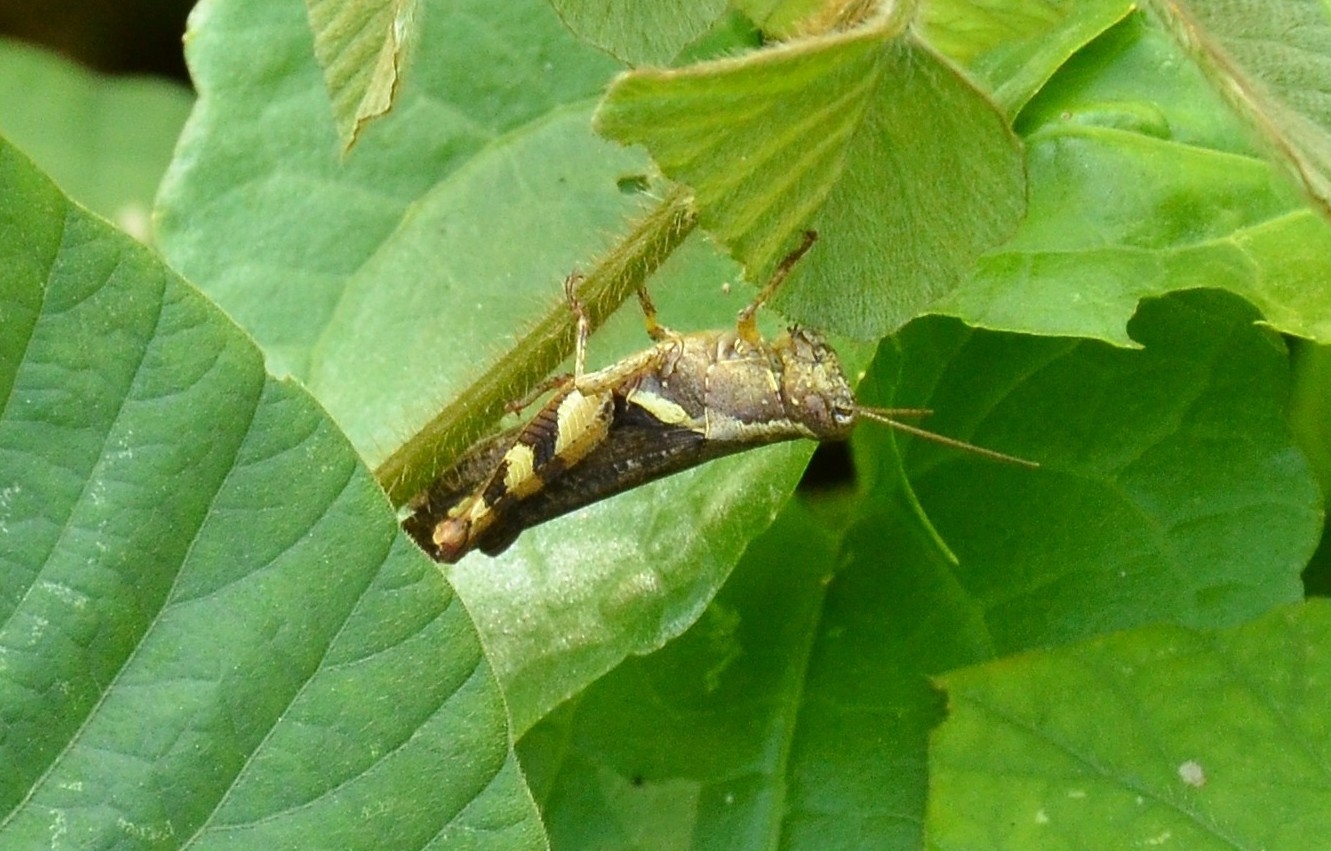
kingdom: Animalia
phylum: Arthropoda
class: Insecta
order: Orthoptera
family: Acrididae
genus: Xenocatantops
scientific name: Xenocatantops humile
